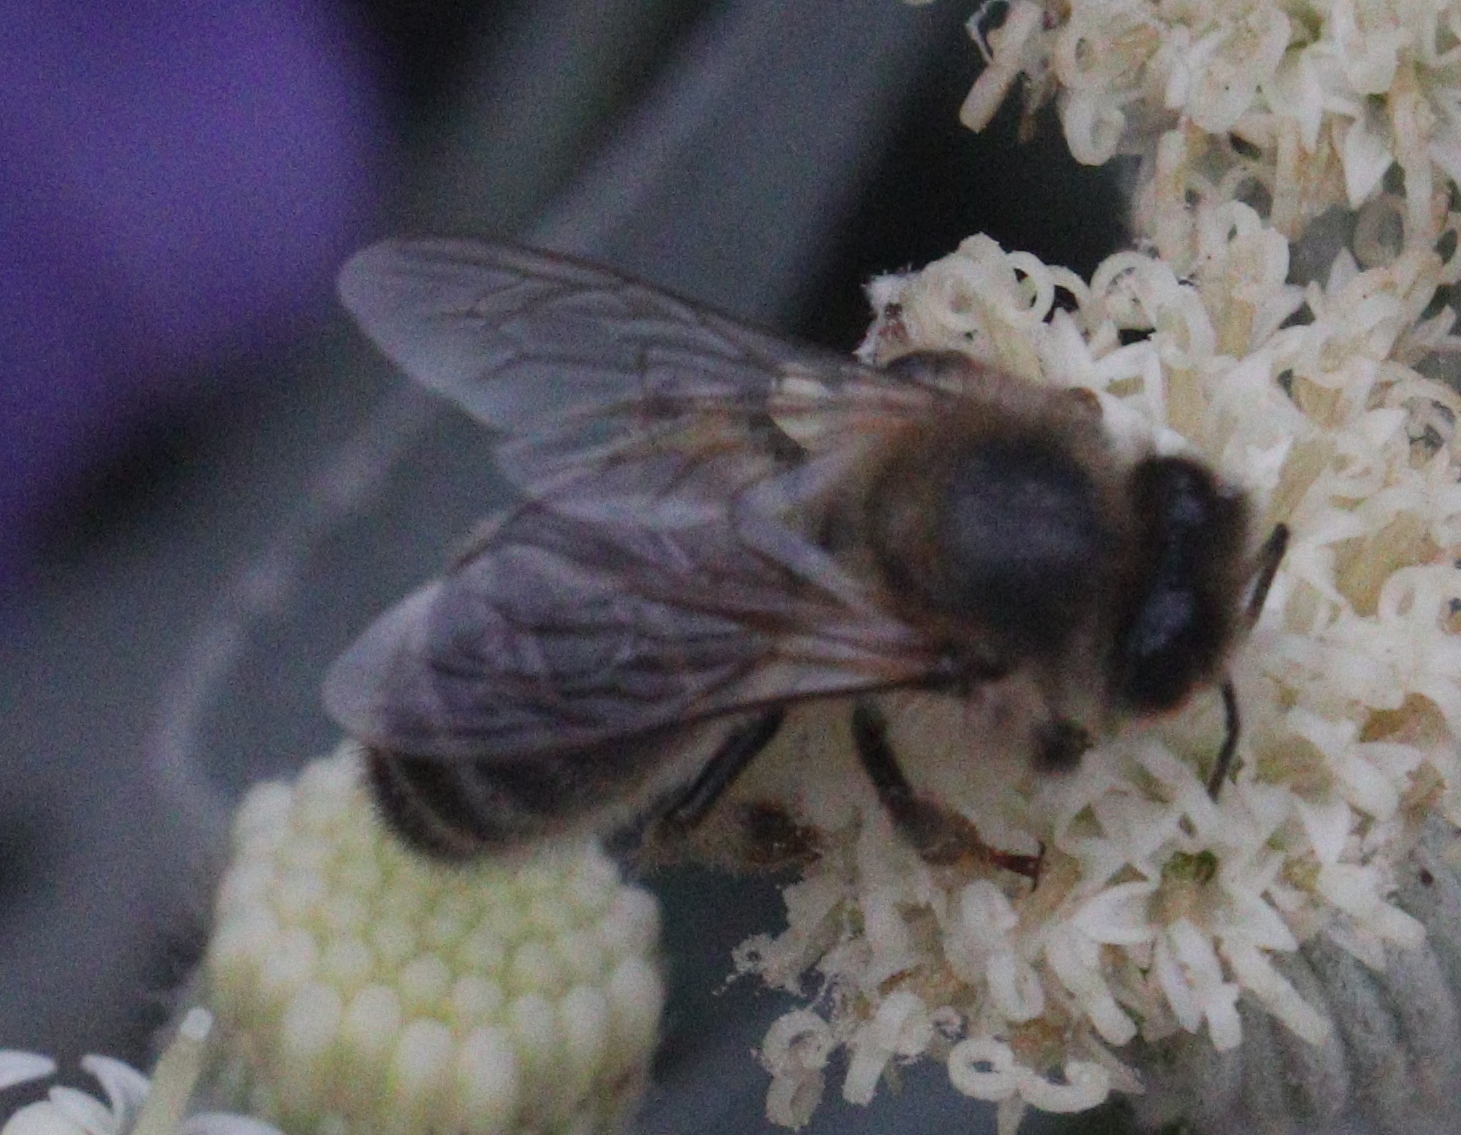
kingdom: Animalia
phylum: Arthropoda
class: Insecta
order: Hymenoptera
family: Apidae
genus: Apis
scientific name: Apis mellifera
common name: Honey bee
